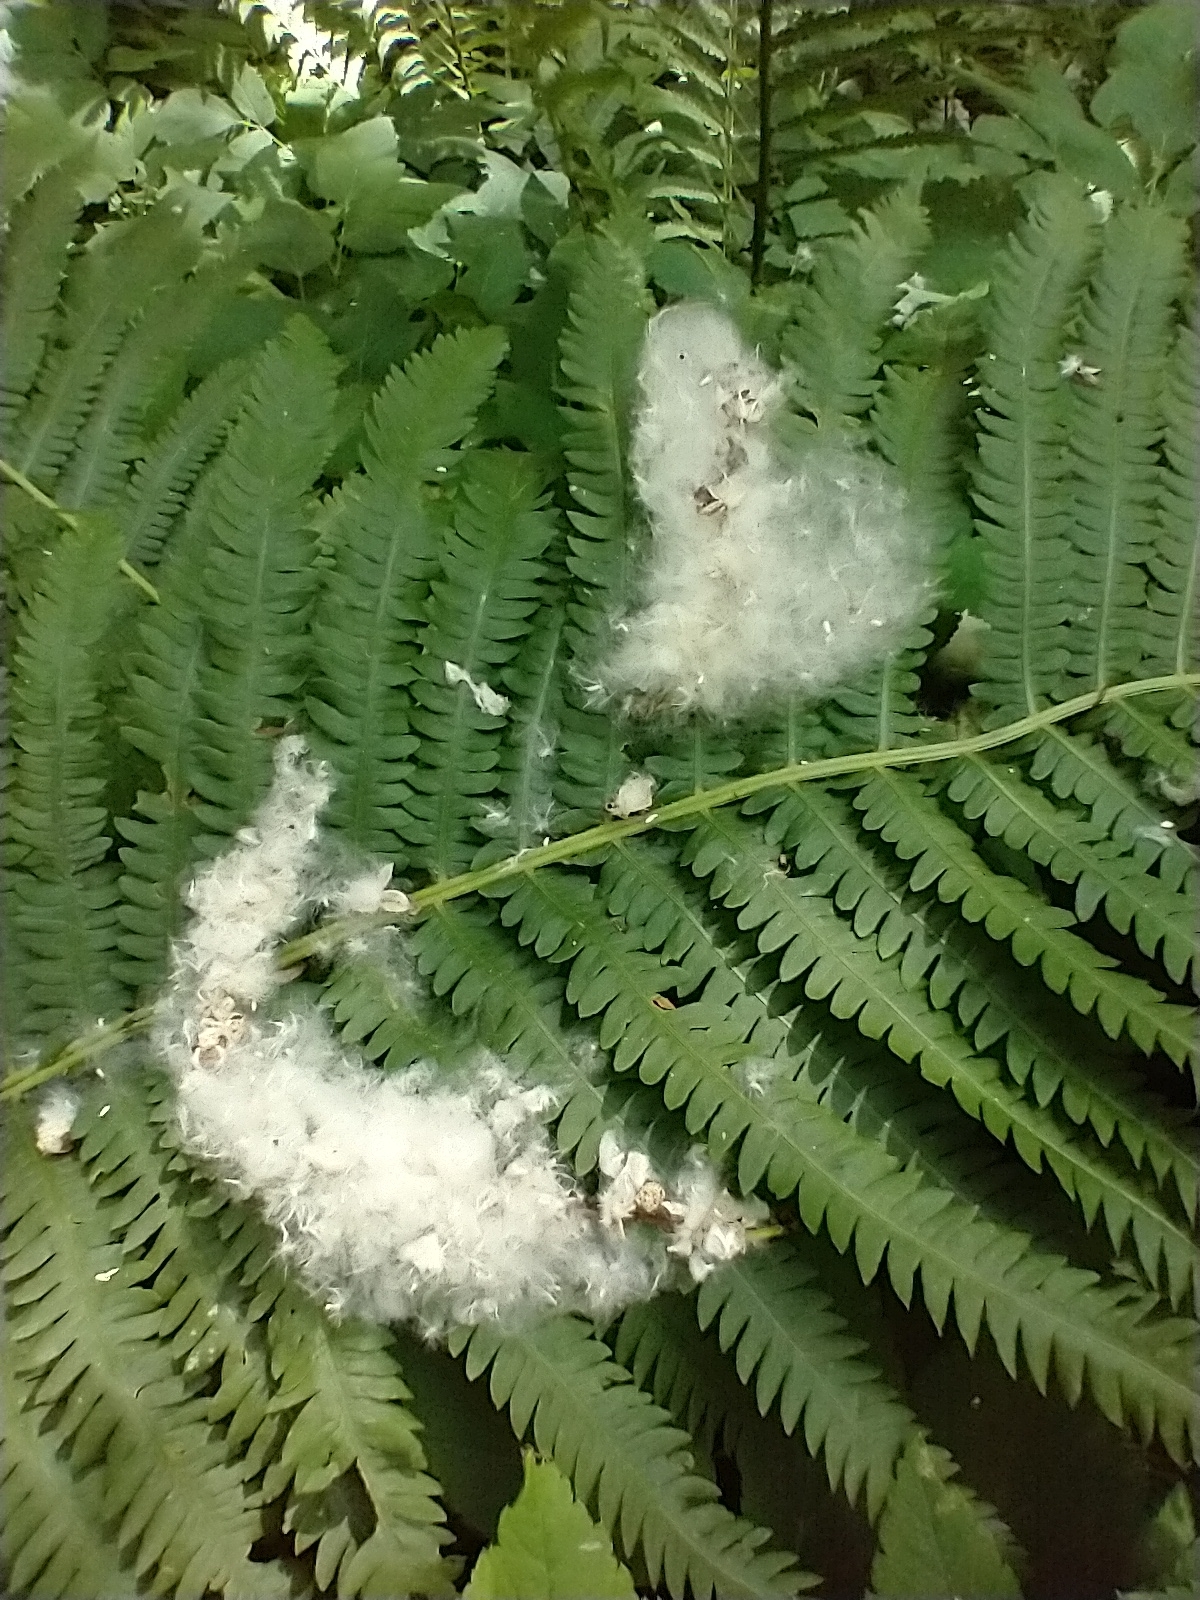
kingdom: Plantae
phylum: Tracheophyta
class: Magnoliopsida
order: Malpighiales
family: Salicaceae
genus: Populus
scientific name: Populus deltoides
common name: Eastern cottonwood
